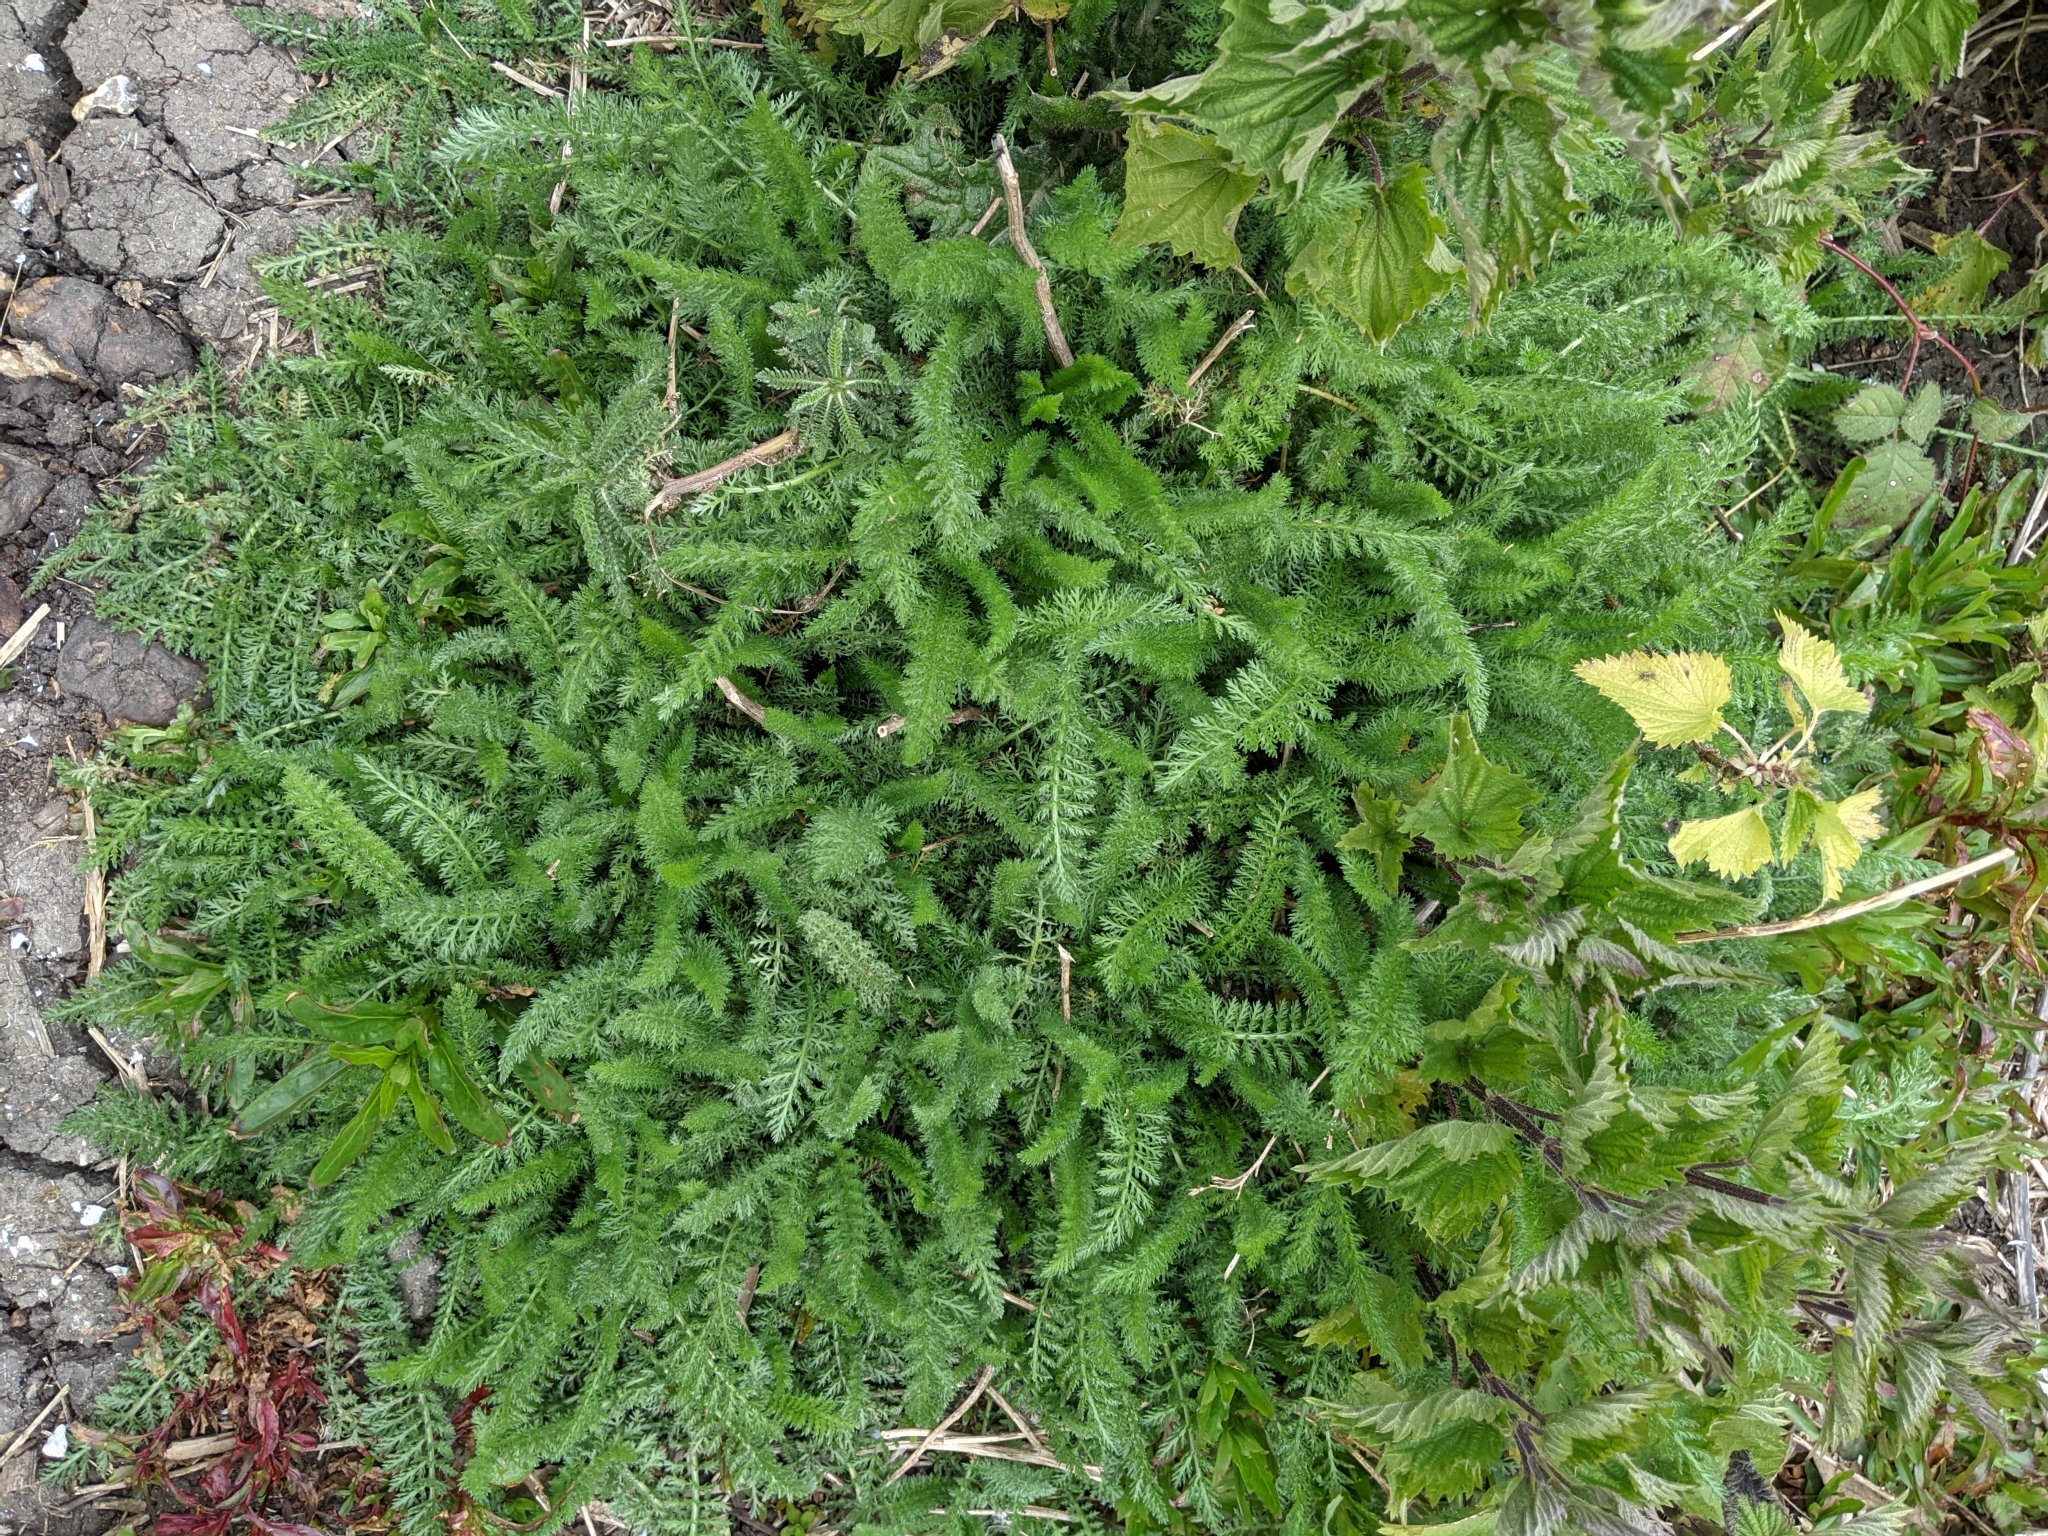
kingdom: Plantae
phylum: Tracheophyta
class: Magnoliopsida
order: Asterales
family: Asteraceae
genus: Achillea
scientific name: Achillea millefolium
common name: Yarrow
